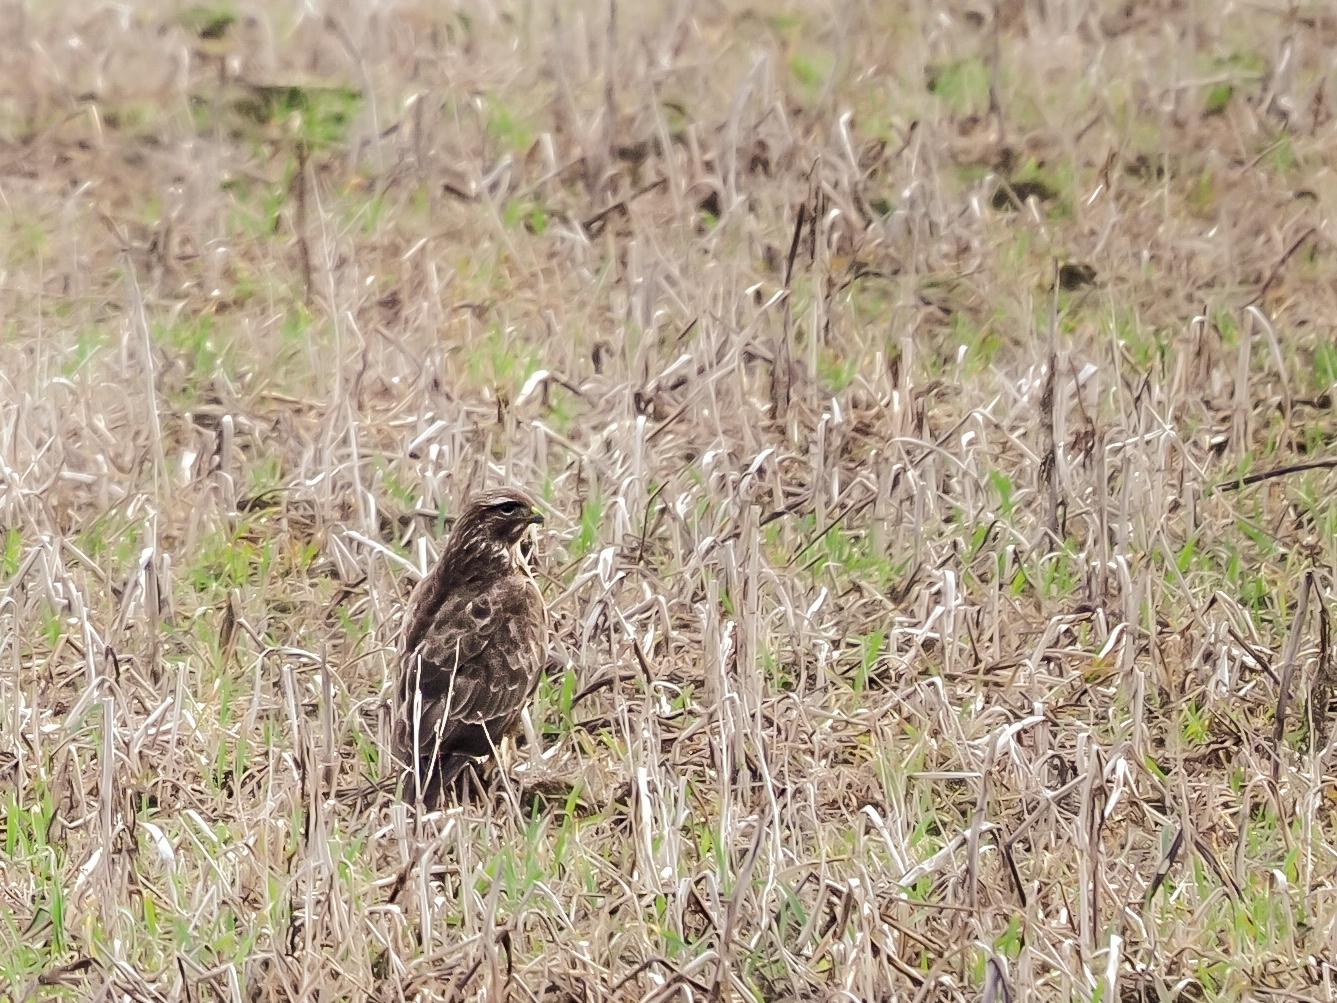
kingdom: Animalia
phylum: Chordata
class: Aves
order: Accipitriformes
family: Accipitridae
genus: Buteo
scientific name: Buteo buteo
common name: Common buzzard
